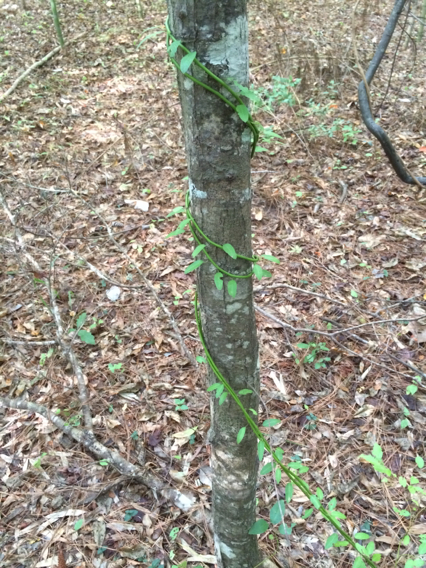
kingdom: Plantae
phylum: Tracheophyta
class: Magnoliopsida
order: Rosales
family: Rhamnaceae
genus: Berchemia
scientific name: Berchemia scandens
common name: Supplejack
